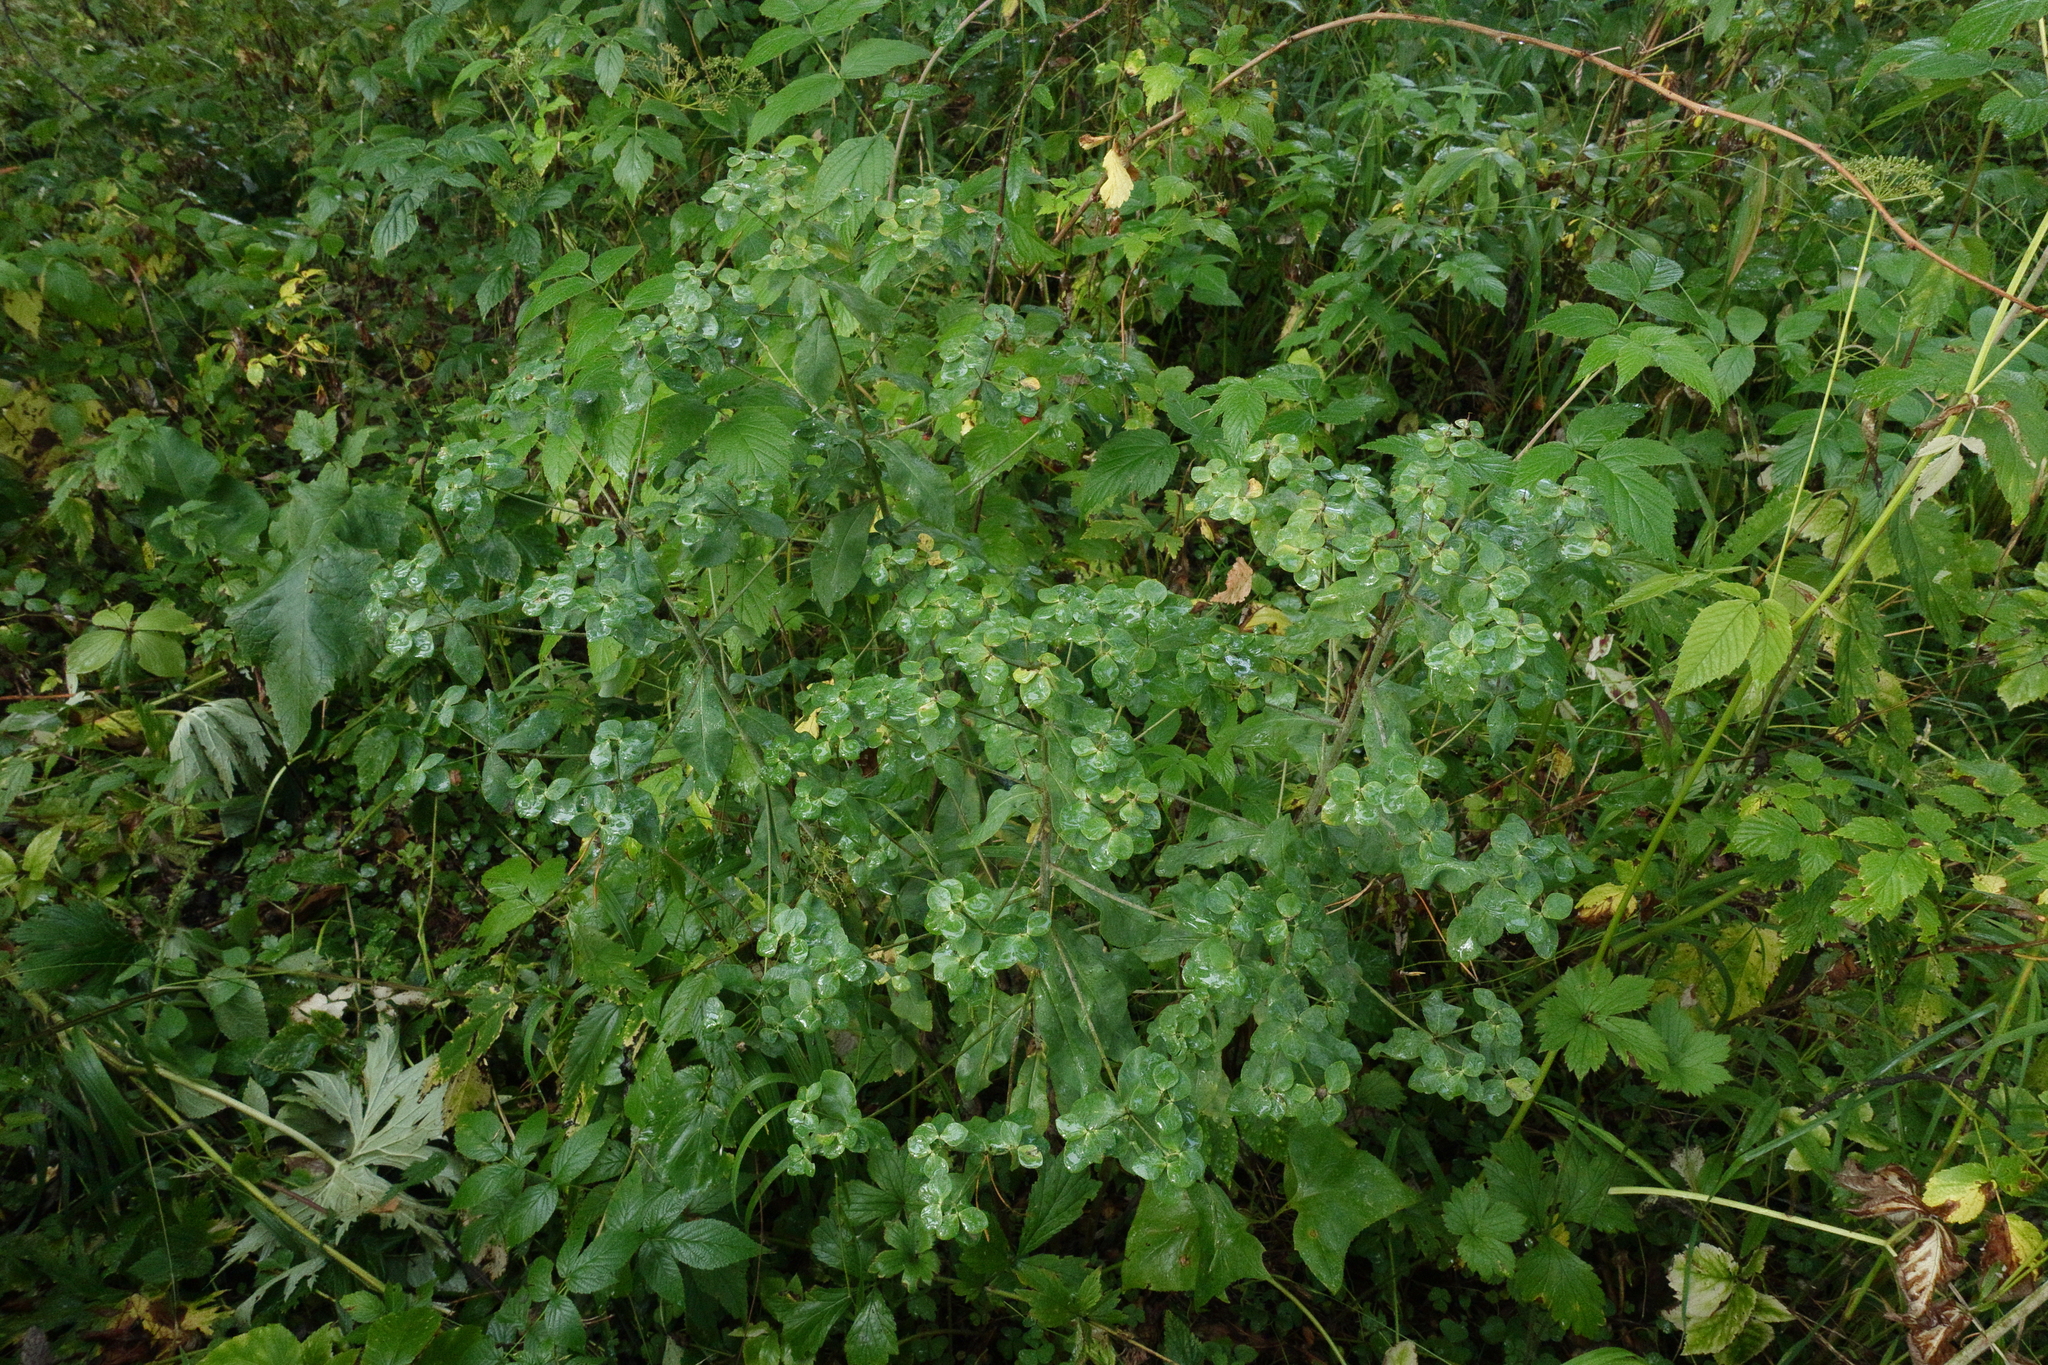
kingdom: Plantae
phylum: Tracheophyta
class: Magnoliopsida
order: Malpighiales
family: Euphorbiaceae
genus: Euphorbia
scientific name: Euphorbia pilosa
